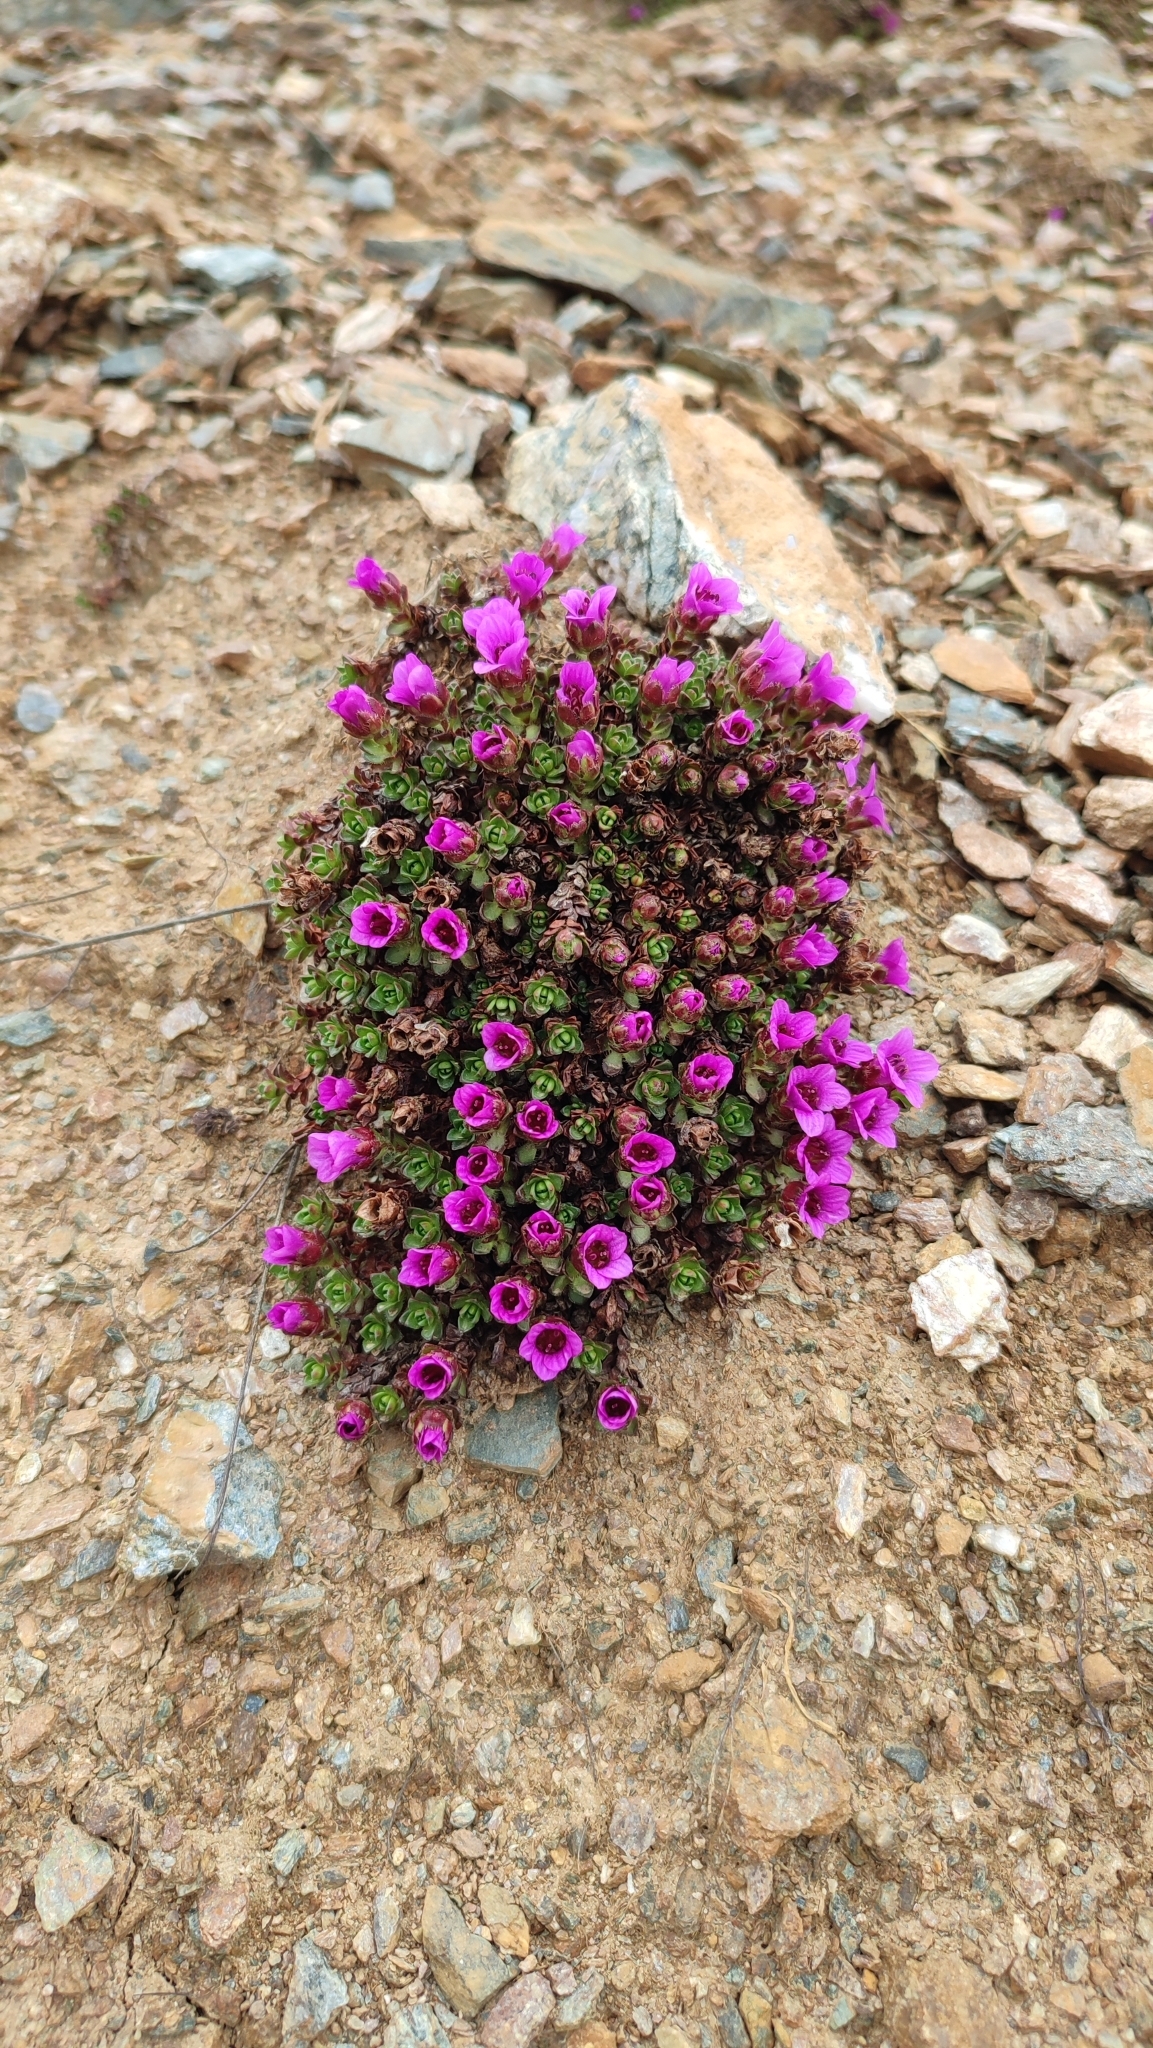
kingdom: Plantae
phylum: Tracheophyta
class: Magnoliopsida
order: Saxifragales
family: Saxifragaceae
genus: Saxifraga
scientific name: Saxifraga oppositifolia
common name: Purple saxifrage
